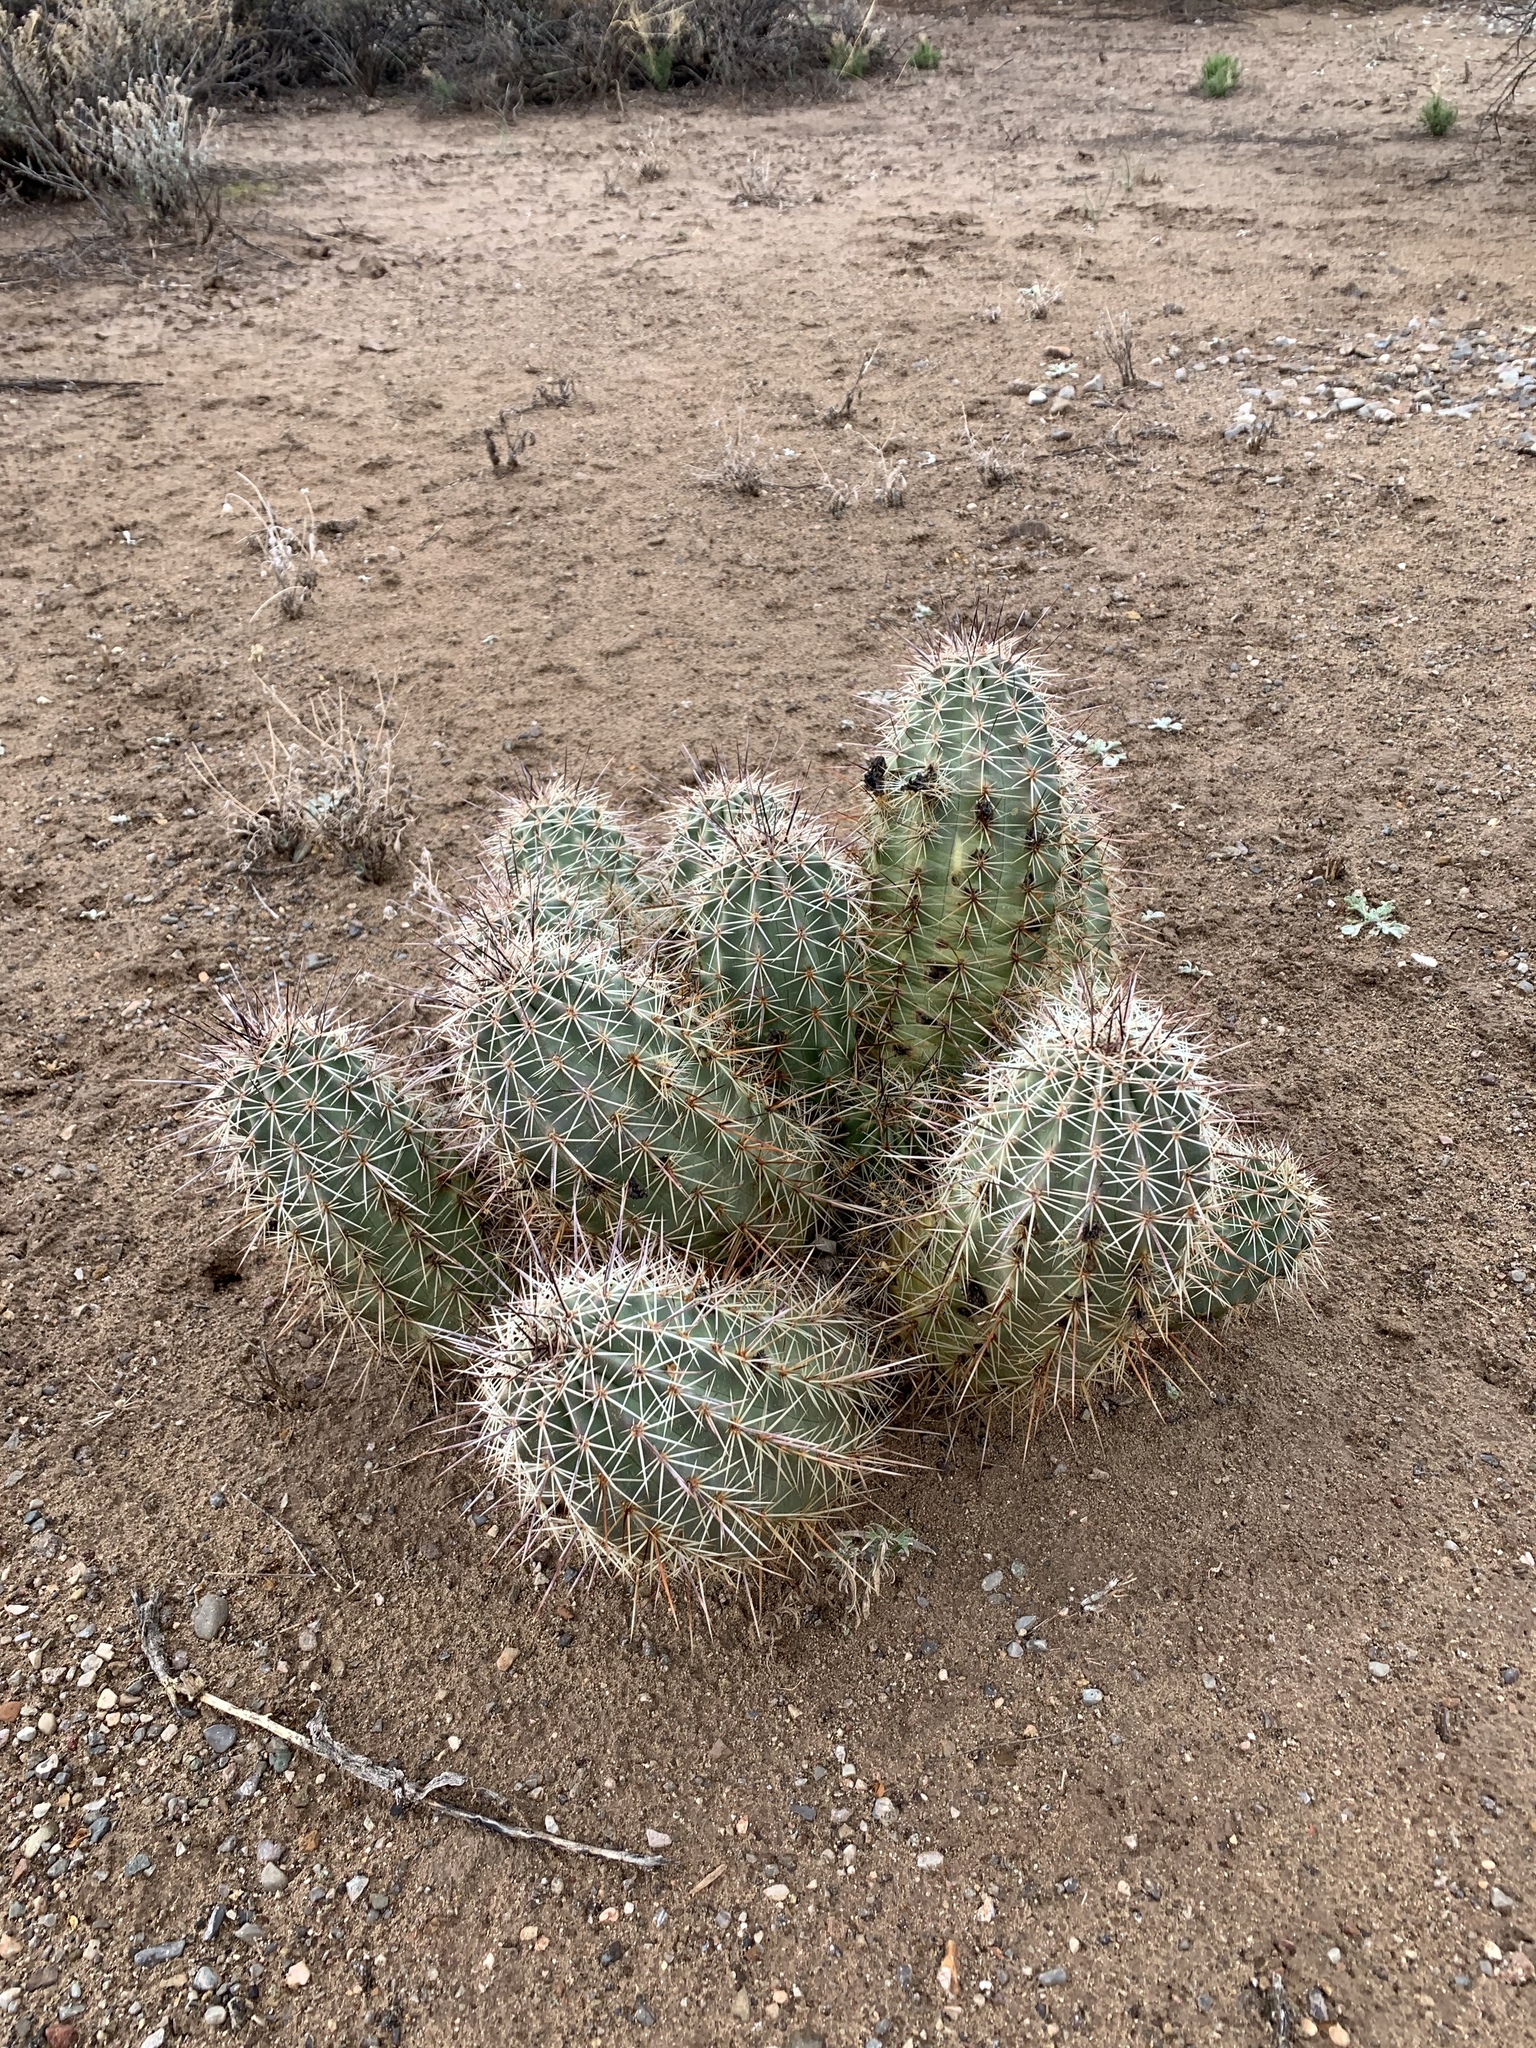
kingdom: Plantae
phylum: Tracheophyta
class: Magnoliopsida
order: Caryophyllales
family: Cactaceae
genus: Echinocereus
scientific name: Echinocereus coccineus
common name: Scarlet hedgehog cactus
